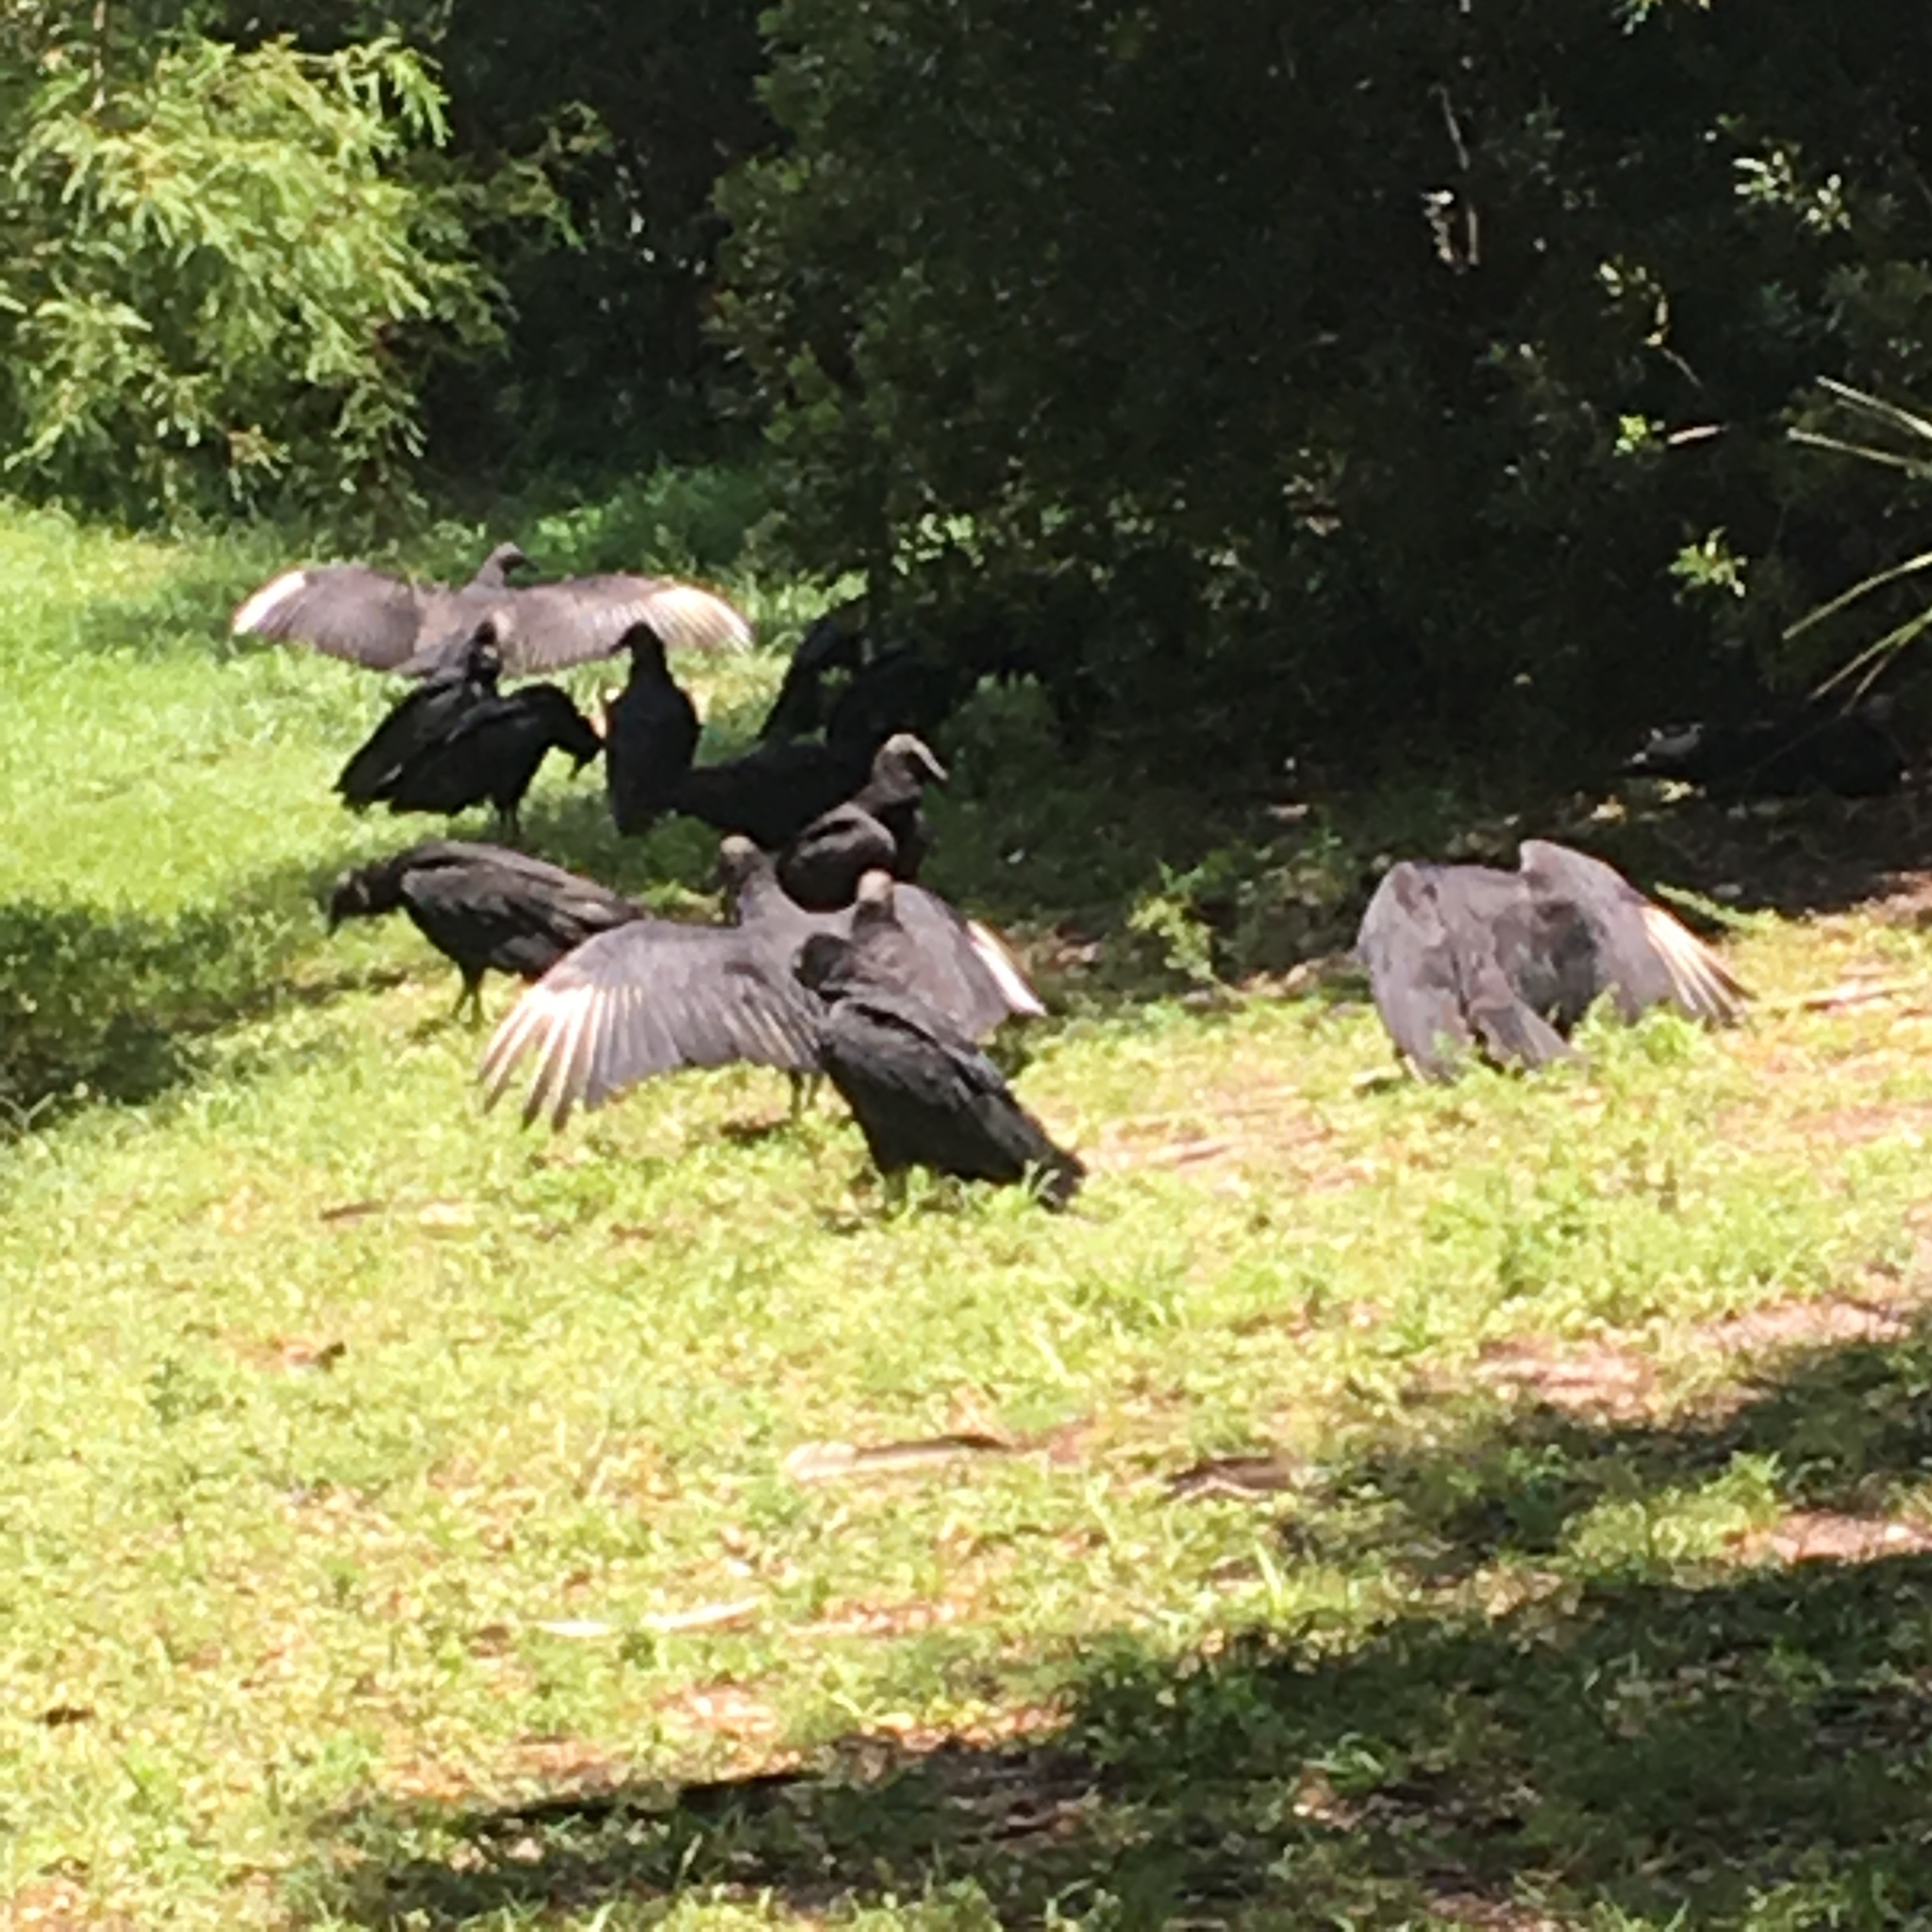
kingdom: Animalia
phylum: Chordata
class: Aves
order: Accipitriformes
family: Cathartidae
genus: Coragyps
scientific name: Coragyps atratus
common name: Black vulture
